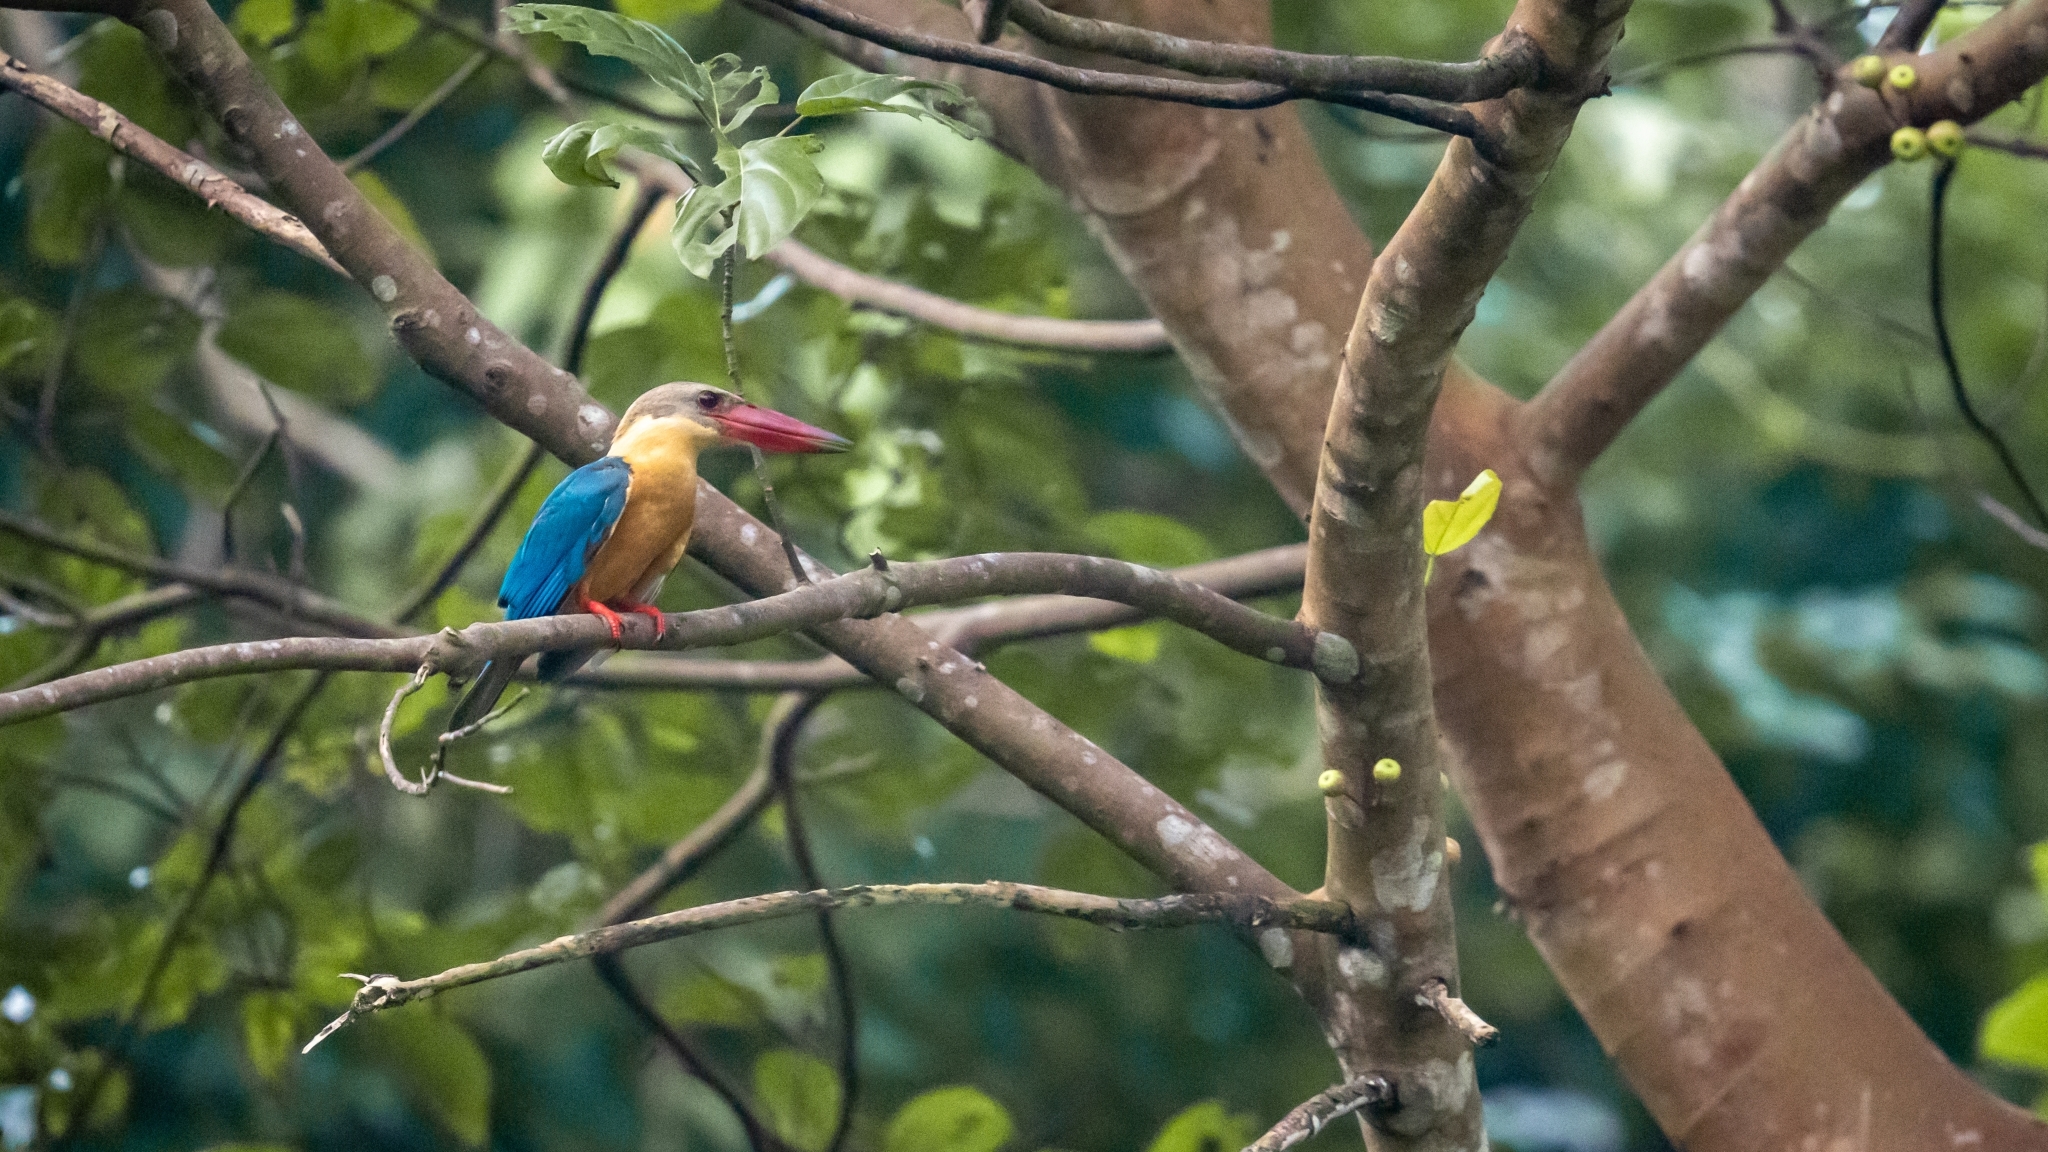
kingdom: Animalia
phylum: Chordata
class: Aves
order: Coraciiformes
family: Alcedinidae
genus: Pelargopsis
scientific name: Pelargopsis capensis
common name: Stork-billed kingfisher
